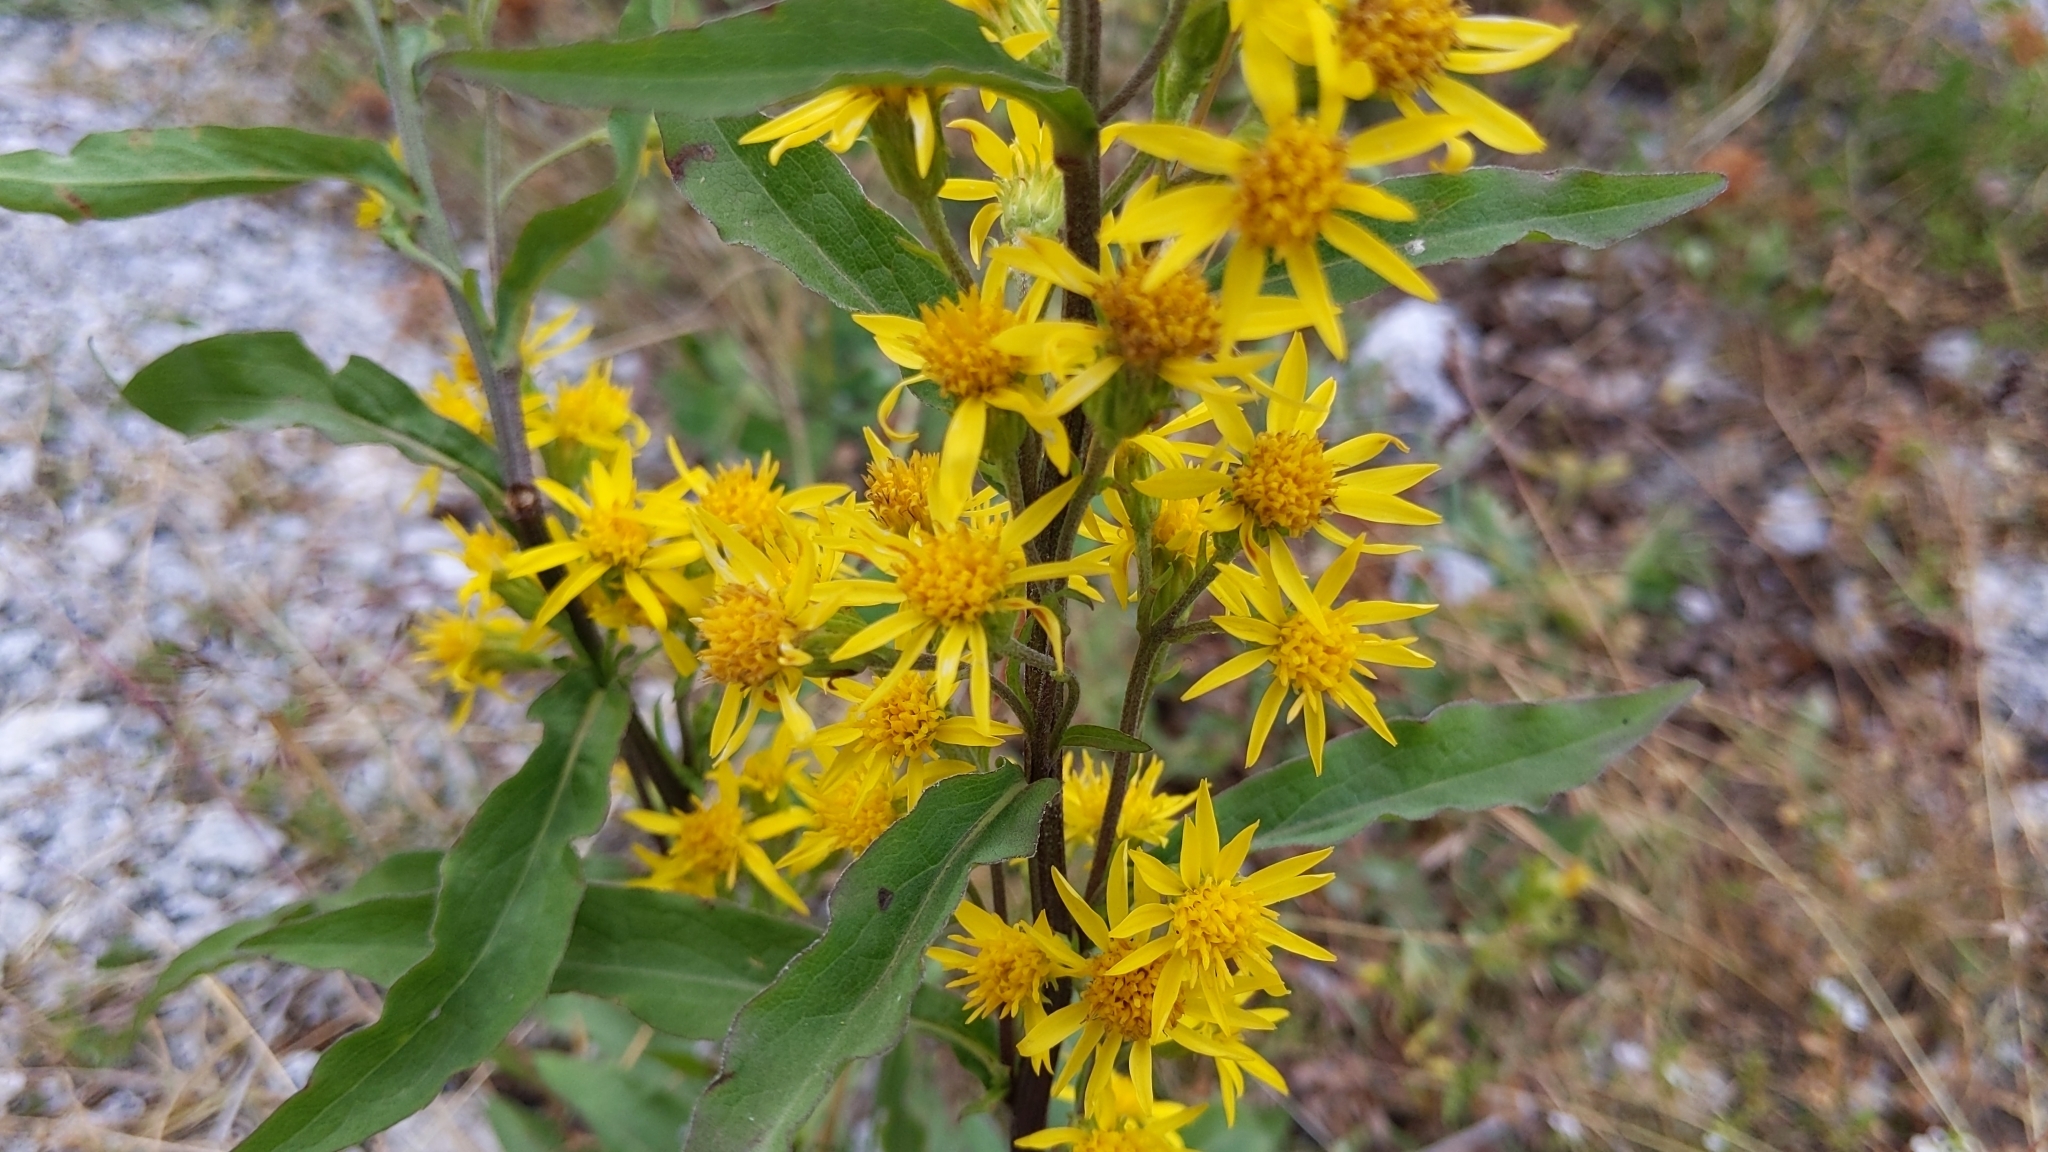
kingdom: Plantae
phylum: Tracheophyta
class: Magnoliopsida
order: Asterales
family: Asteraceae
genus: Solidago
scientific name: Solidago virgaurea
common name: Goldenrod
